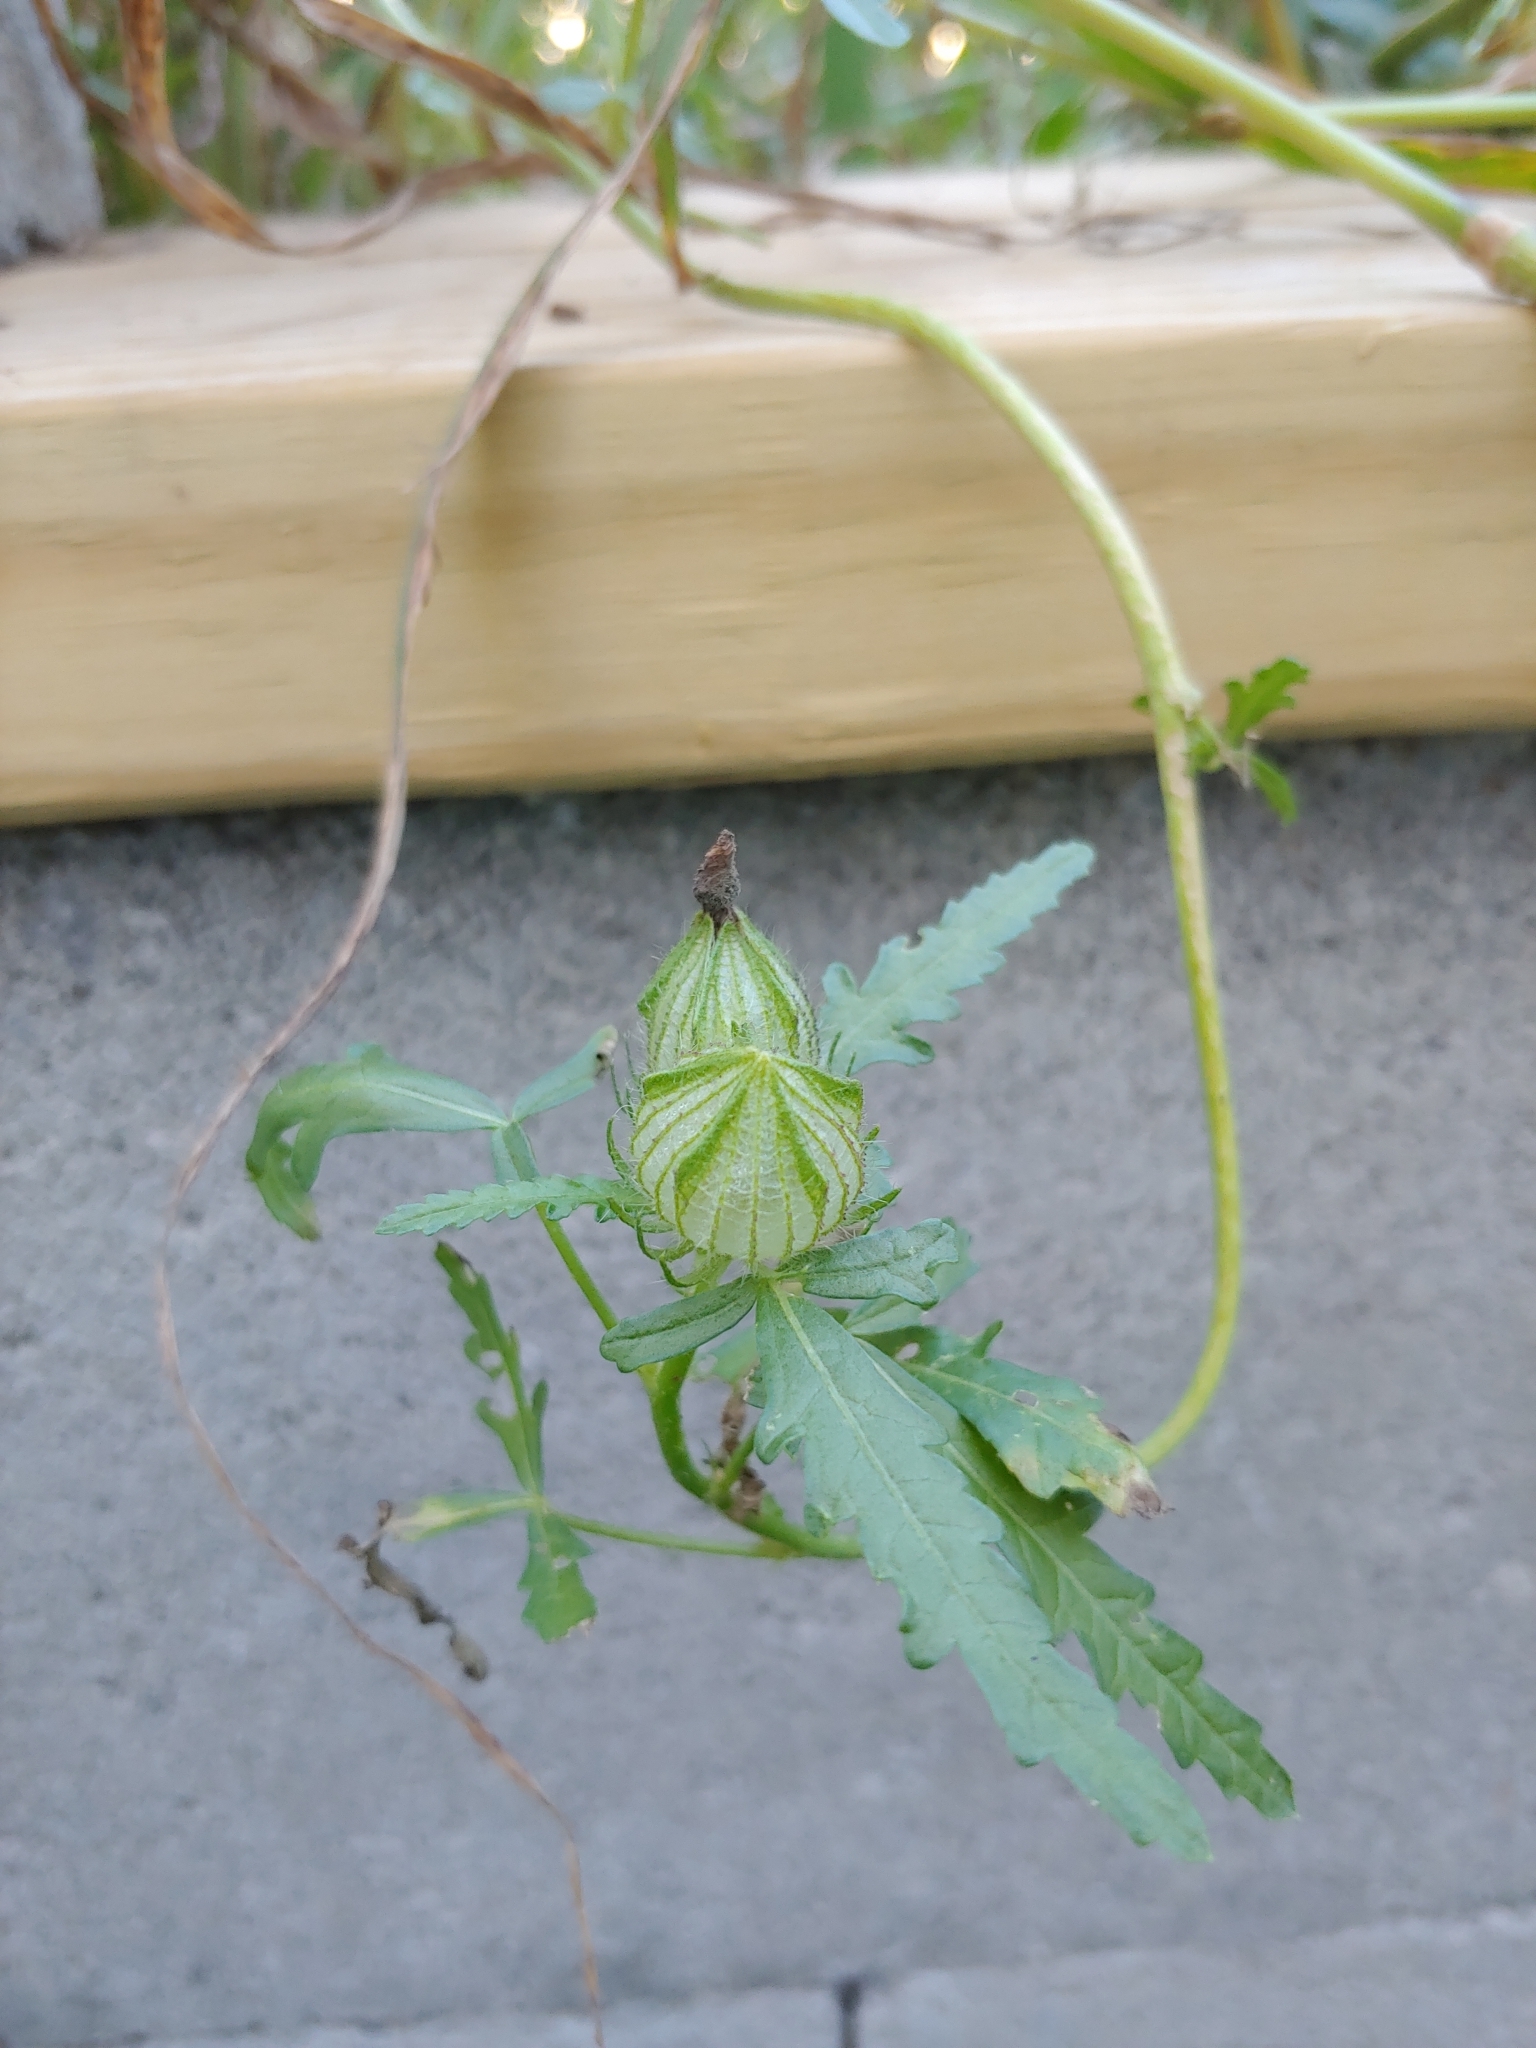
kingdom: Plantae
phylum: Tracheophyta
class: Magnoliopsida
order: Malvales
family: Malvaceae
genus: Hibiscus
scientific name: Hibiscus trionum
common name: Bladder ketmia
